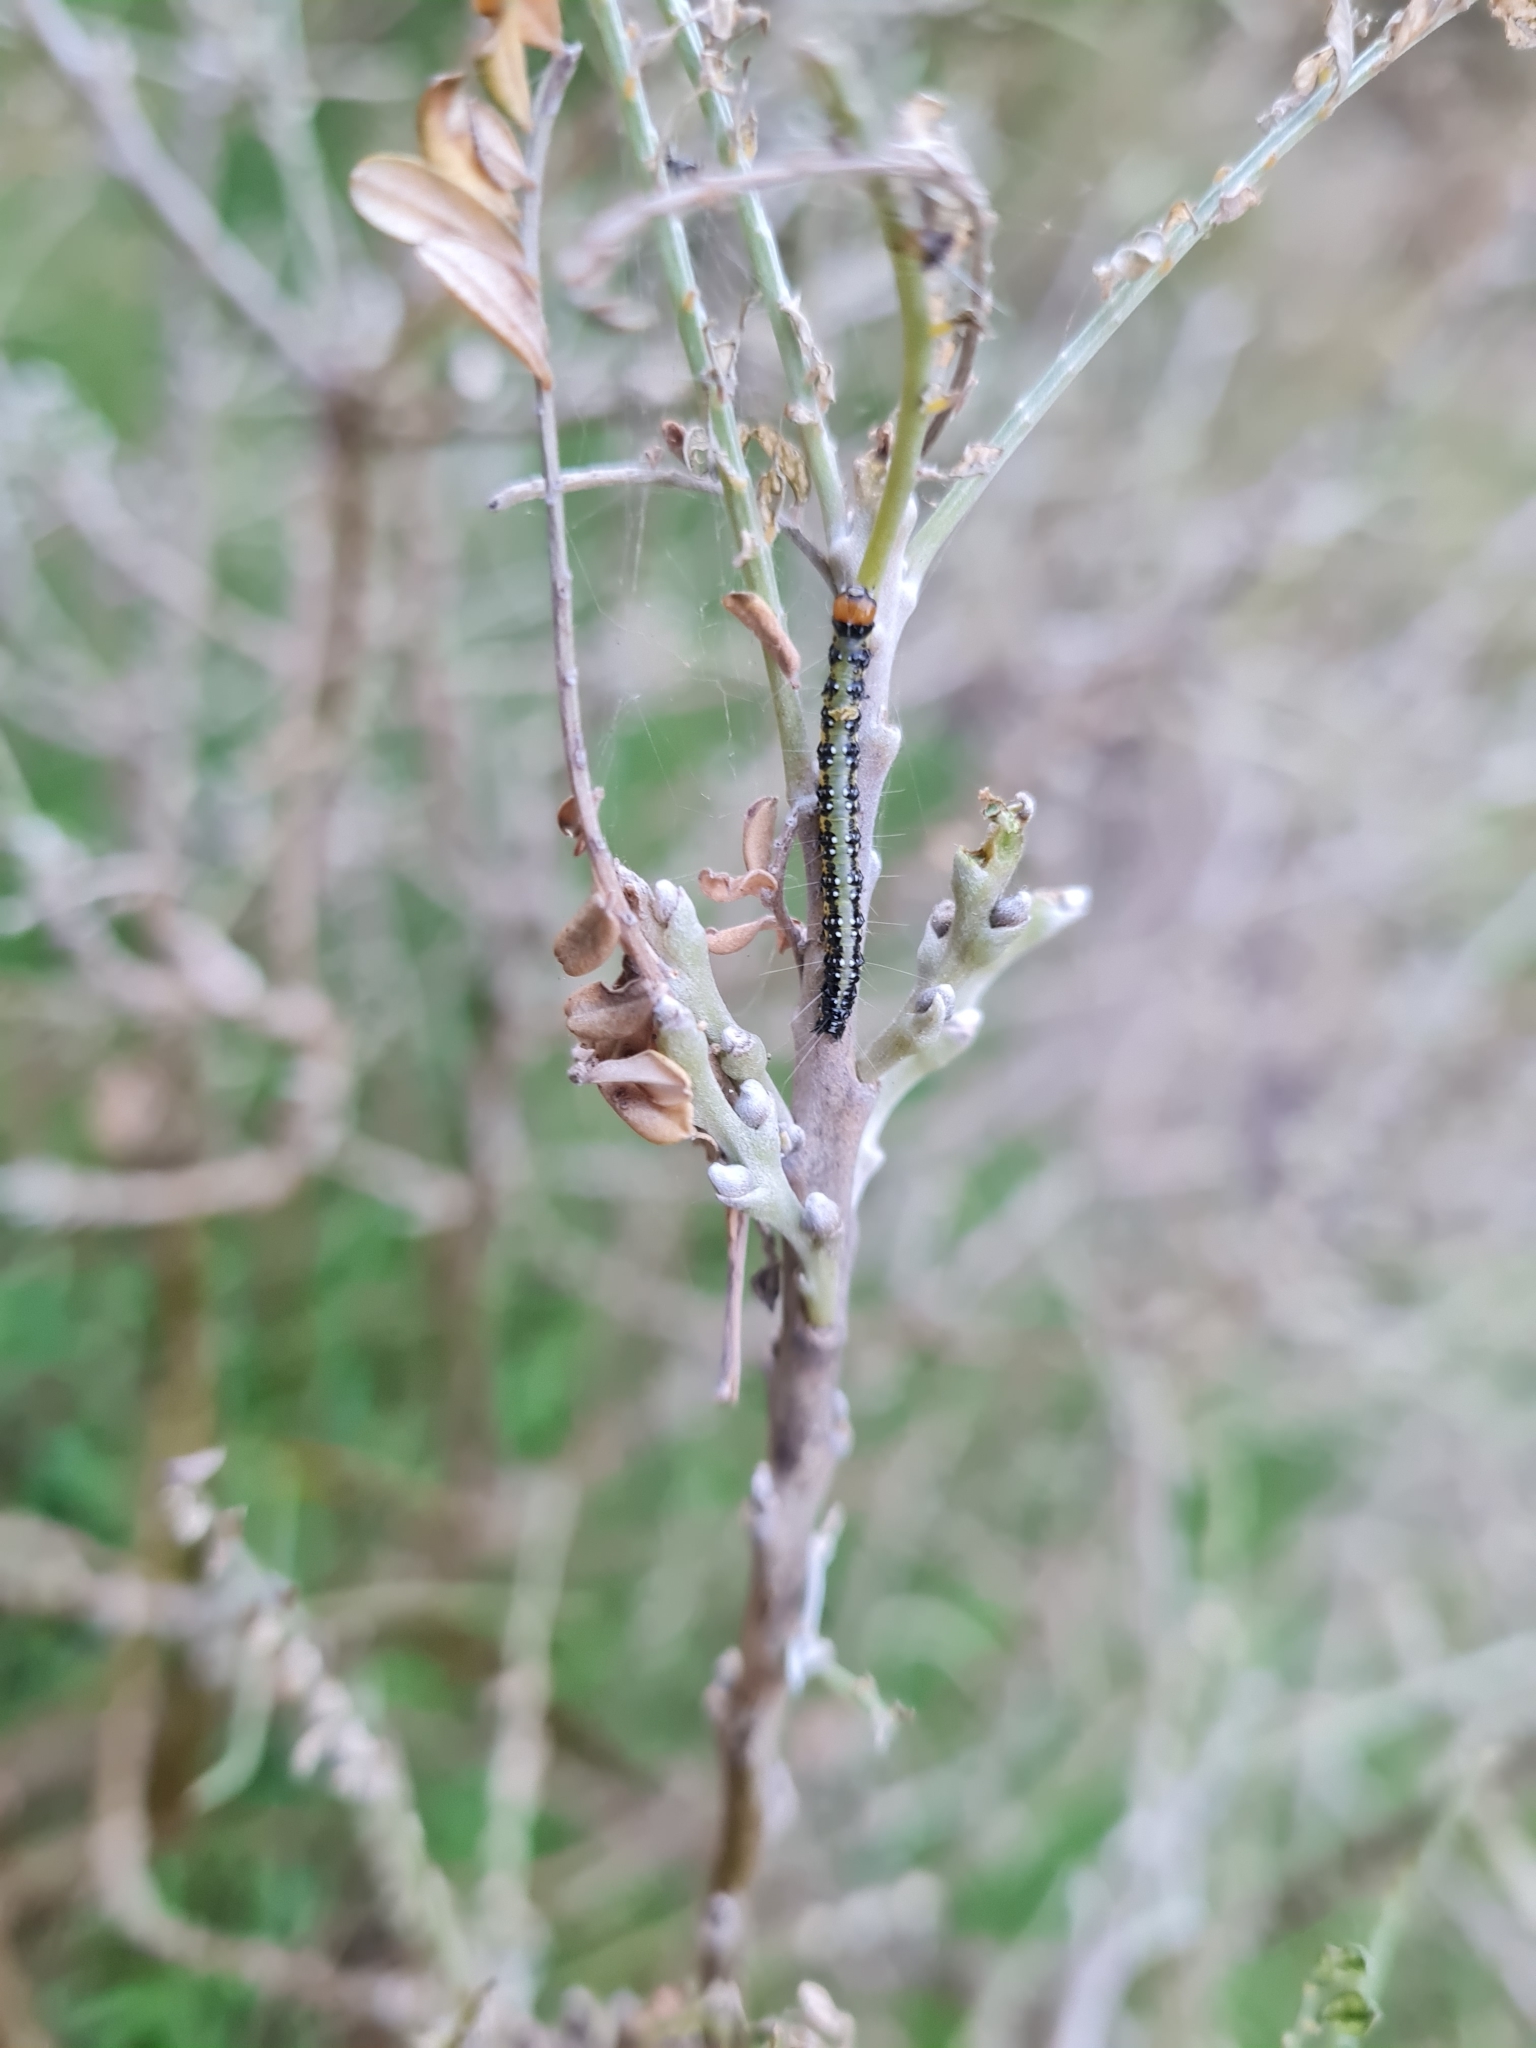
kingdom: Animalia
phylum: Arthropoda
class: Insecta
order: Lepidoptera
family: Crambidae
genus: Uresiphita
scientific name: Uresiphita
